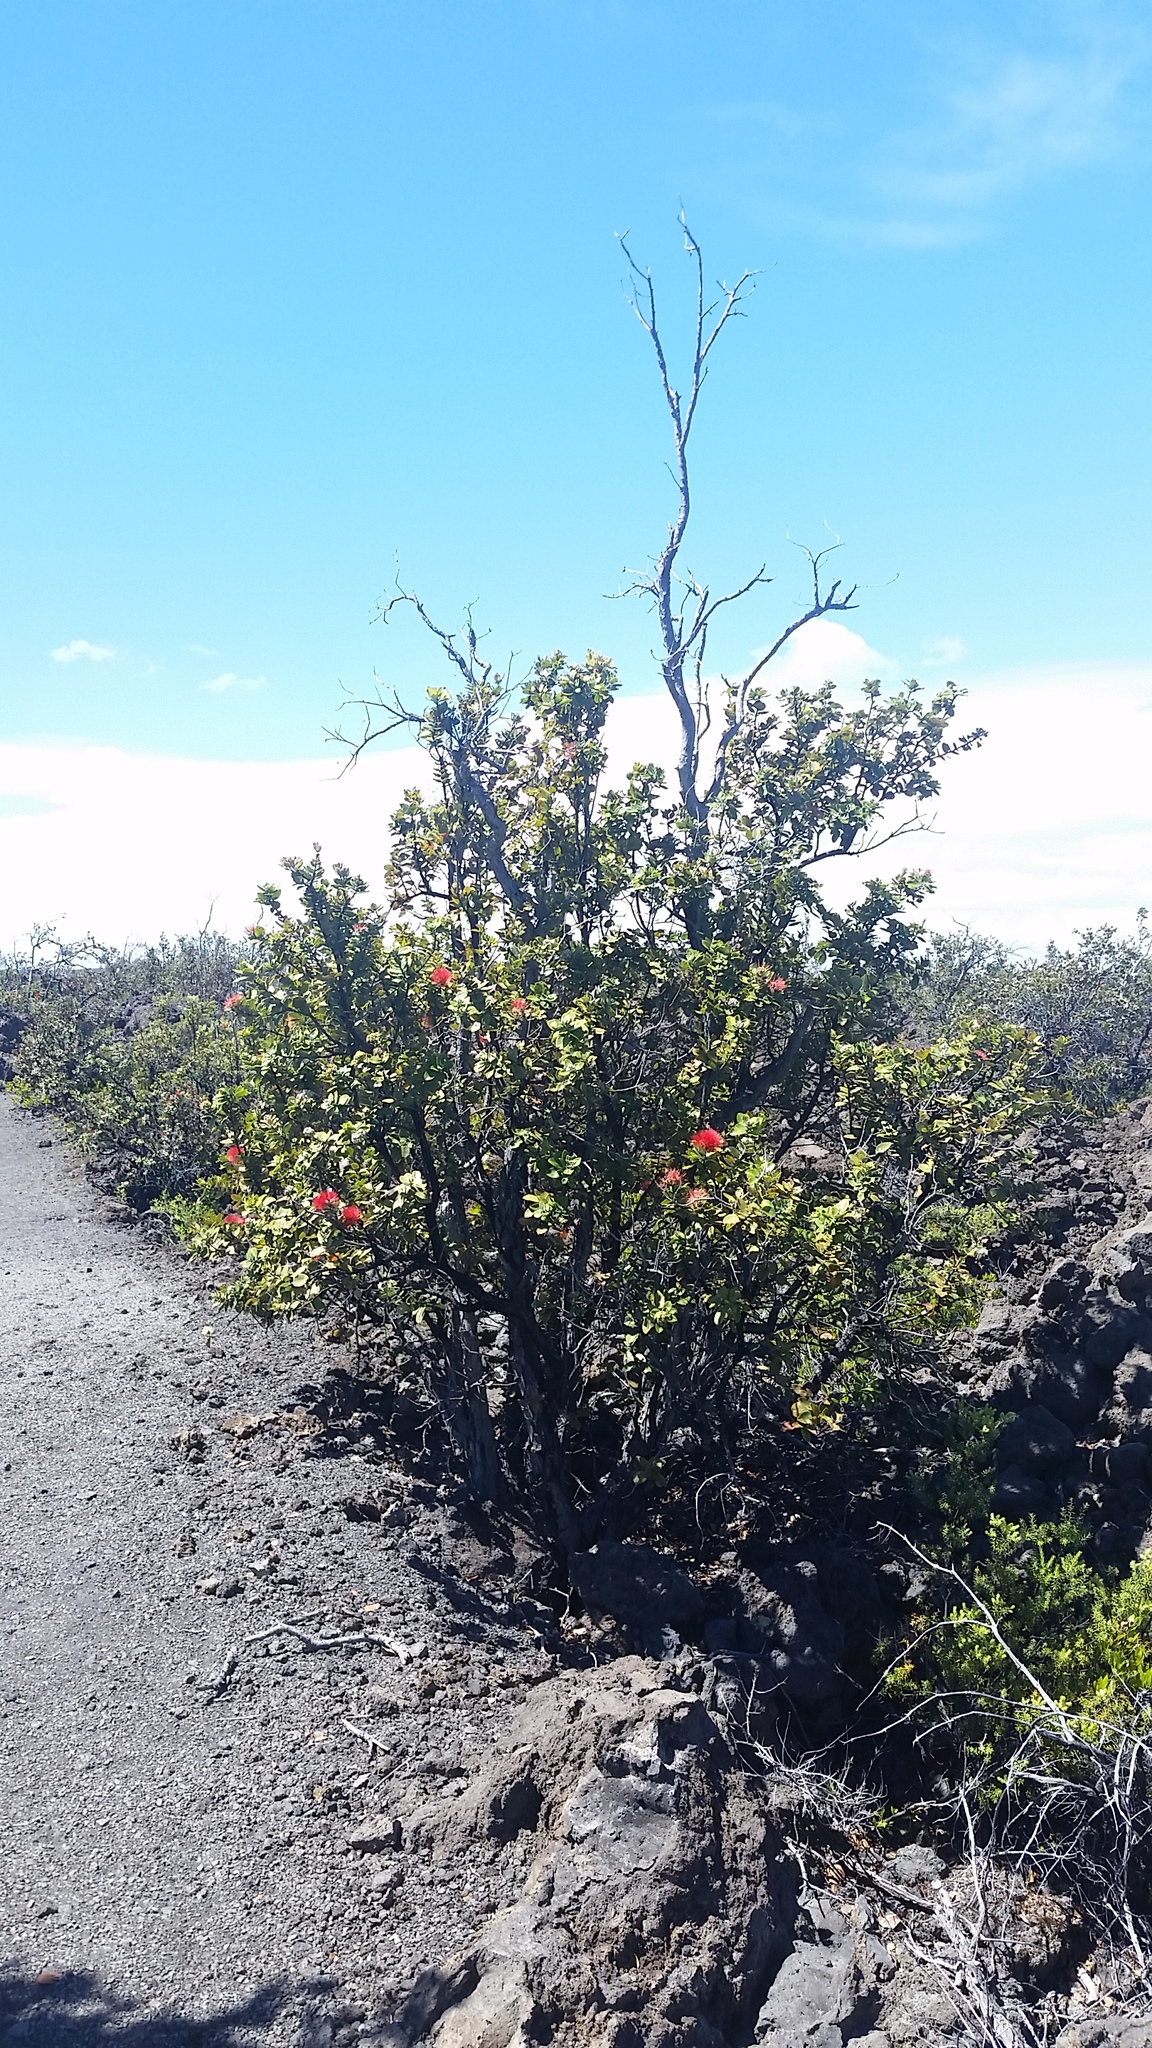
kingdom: Plantae
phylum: Tracheophyta
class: Magnoliopsida
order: Myrtales
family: Myrtaceae
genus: Metrosideros
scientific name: Metrosideros polymorpha
